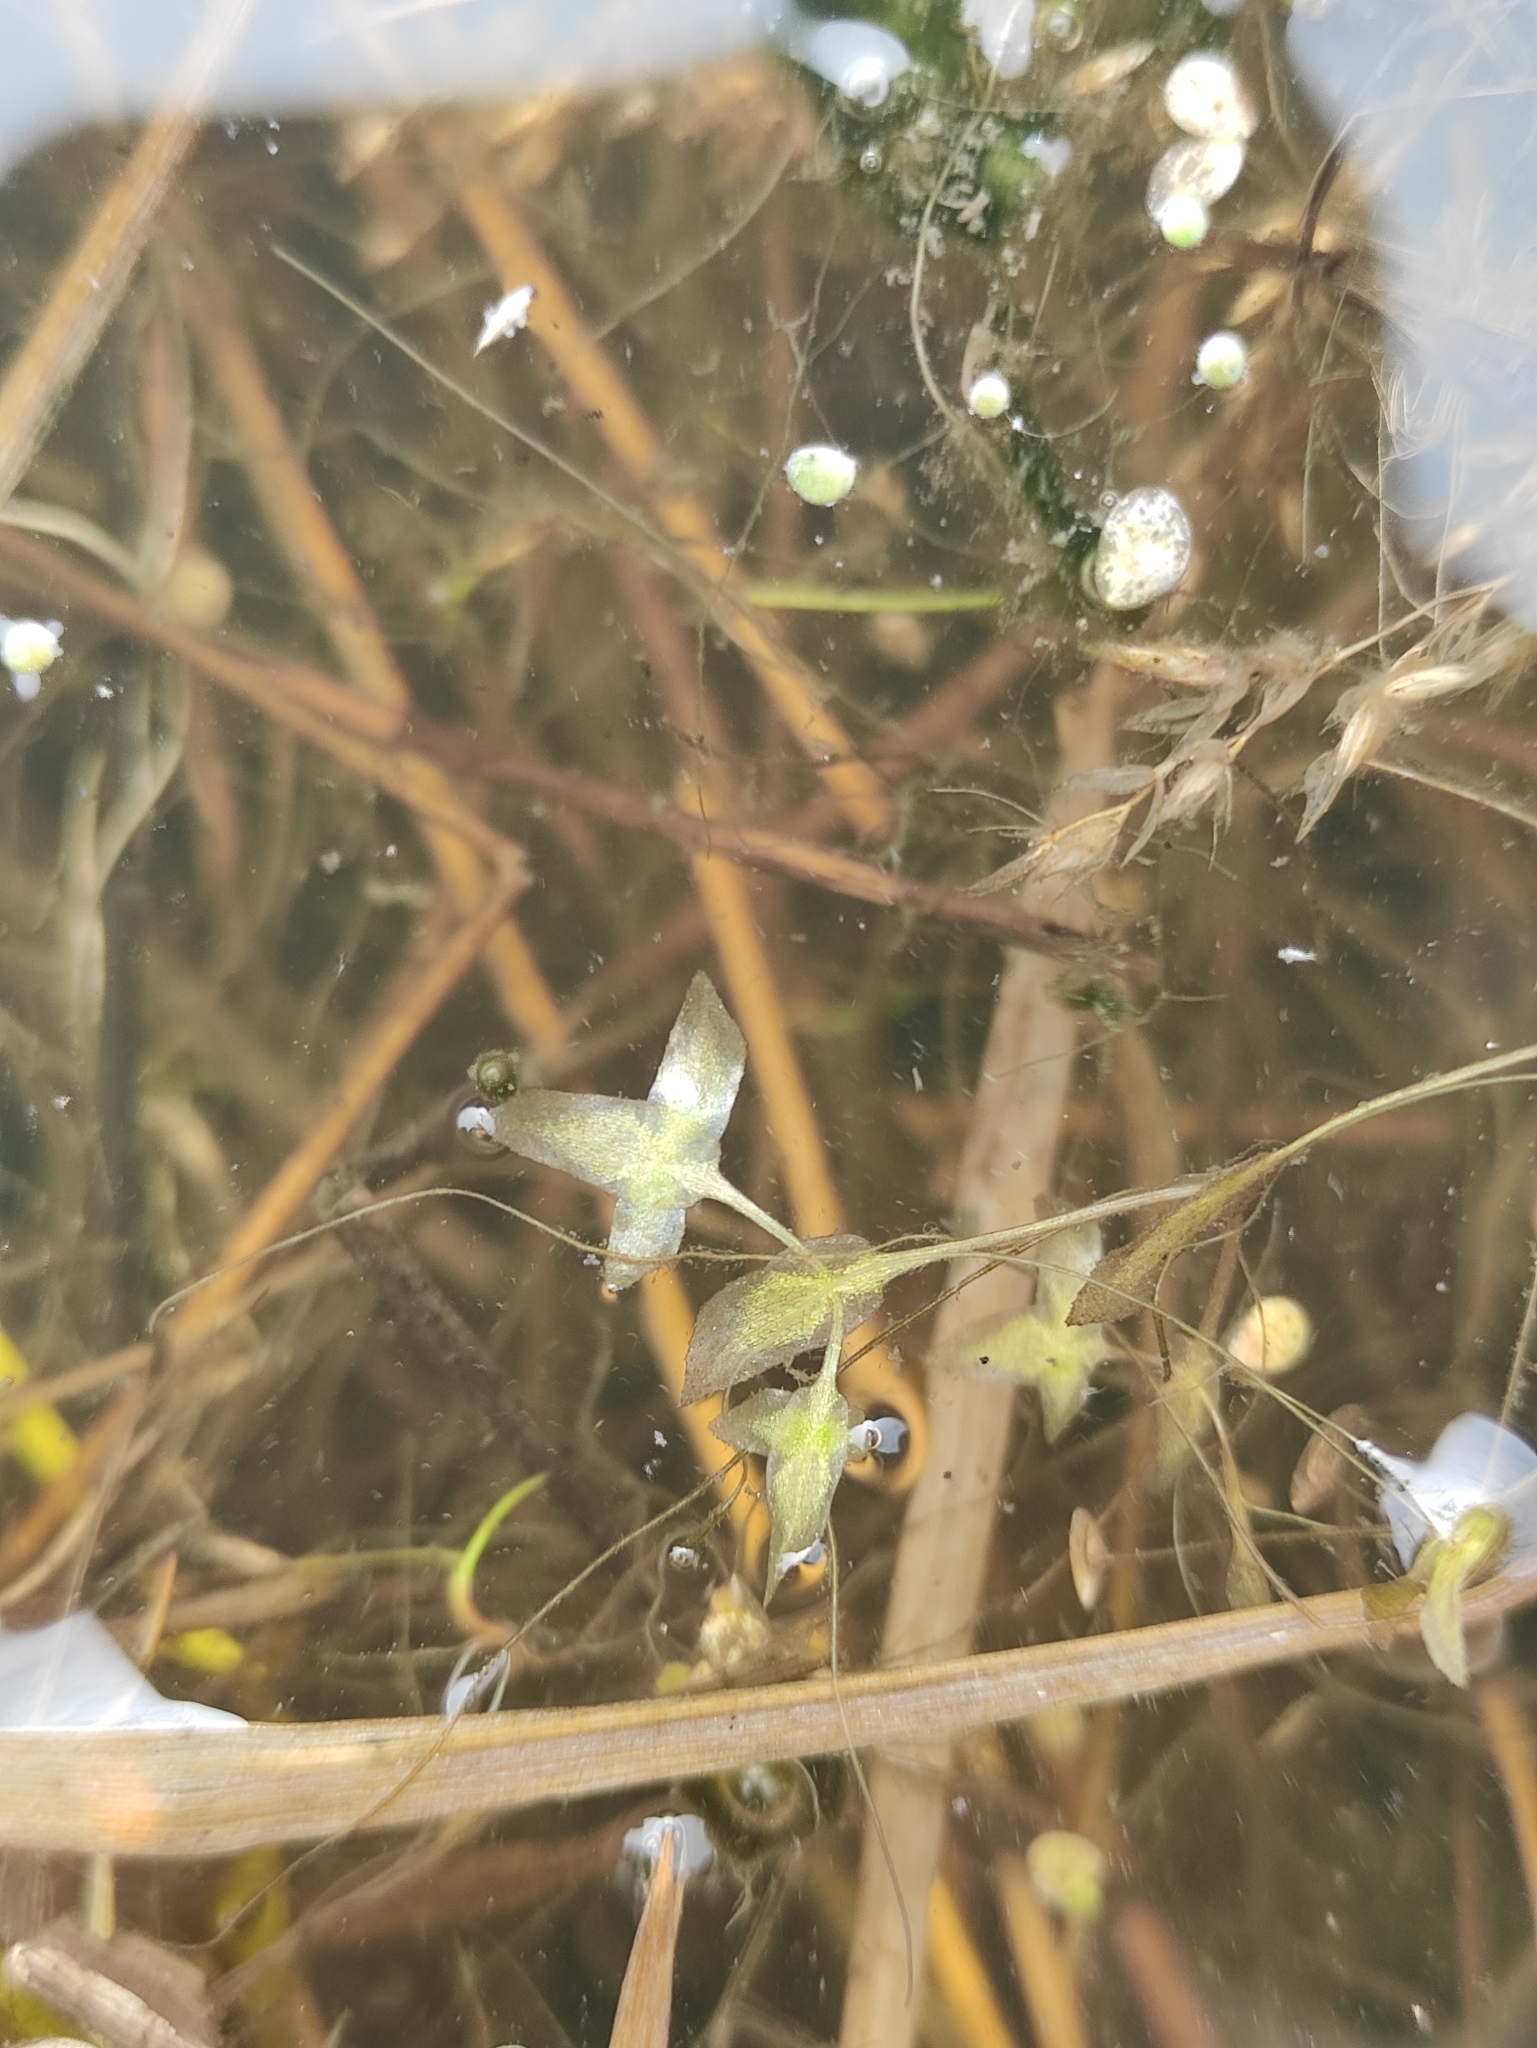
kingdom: Plantae
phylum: Tracheophyta
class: Liliopsida
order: Alismatales
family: Araceae
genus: Lemna
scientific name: Lemna trisulca
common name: Ivy-leaved duckweed
